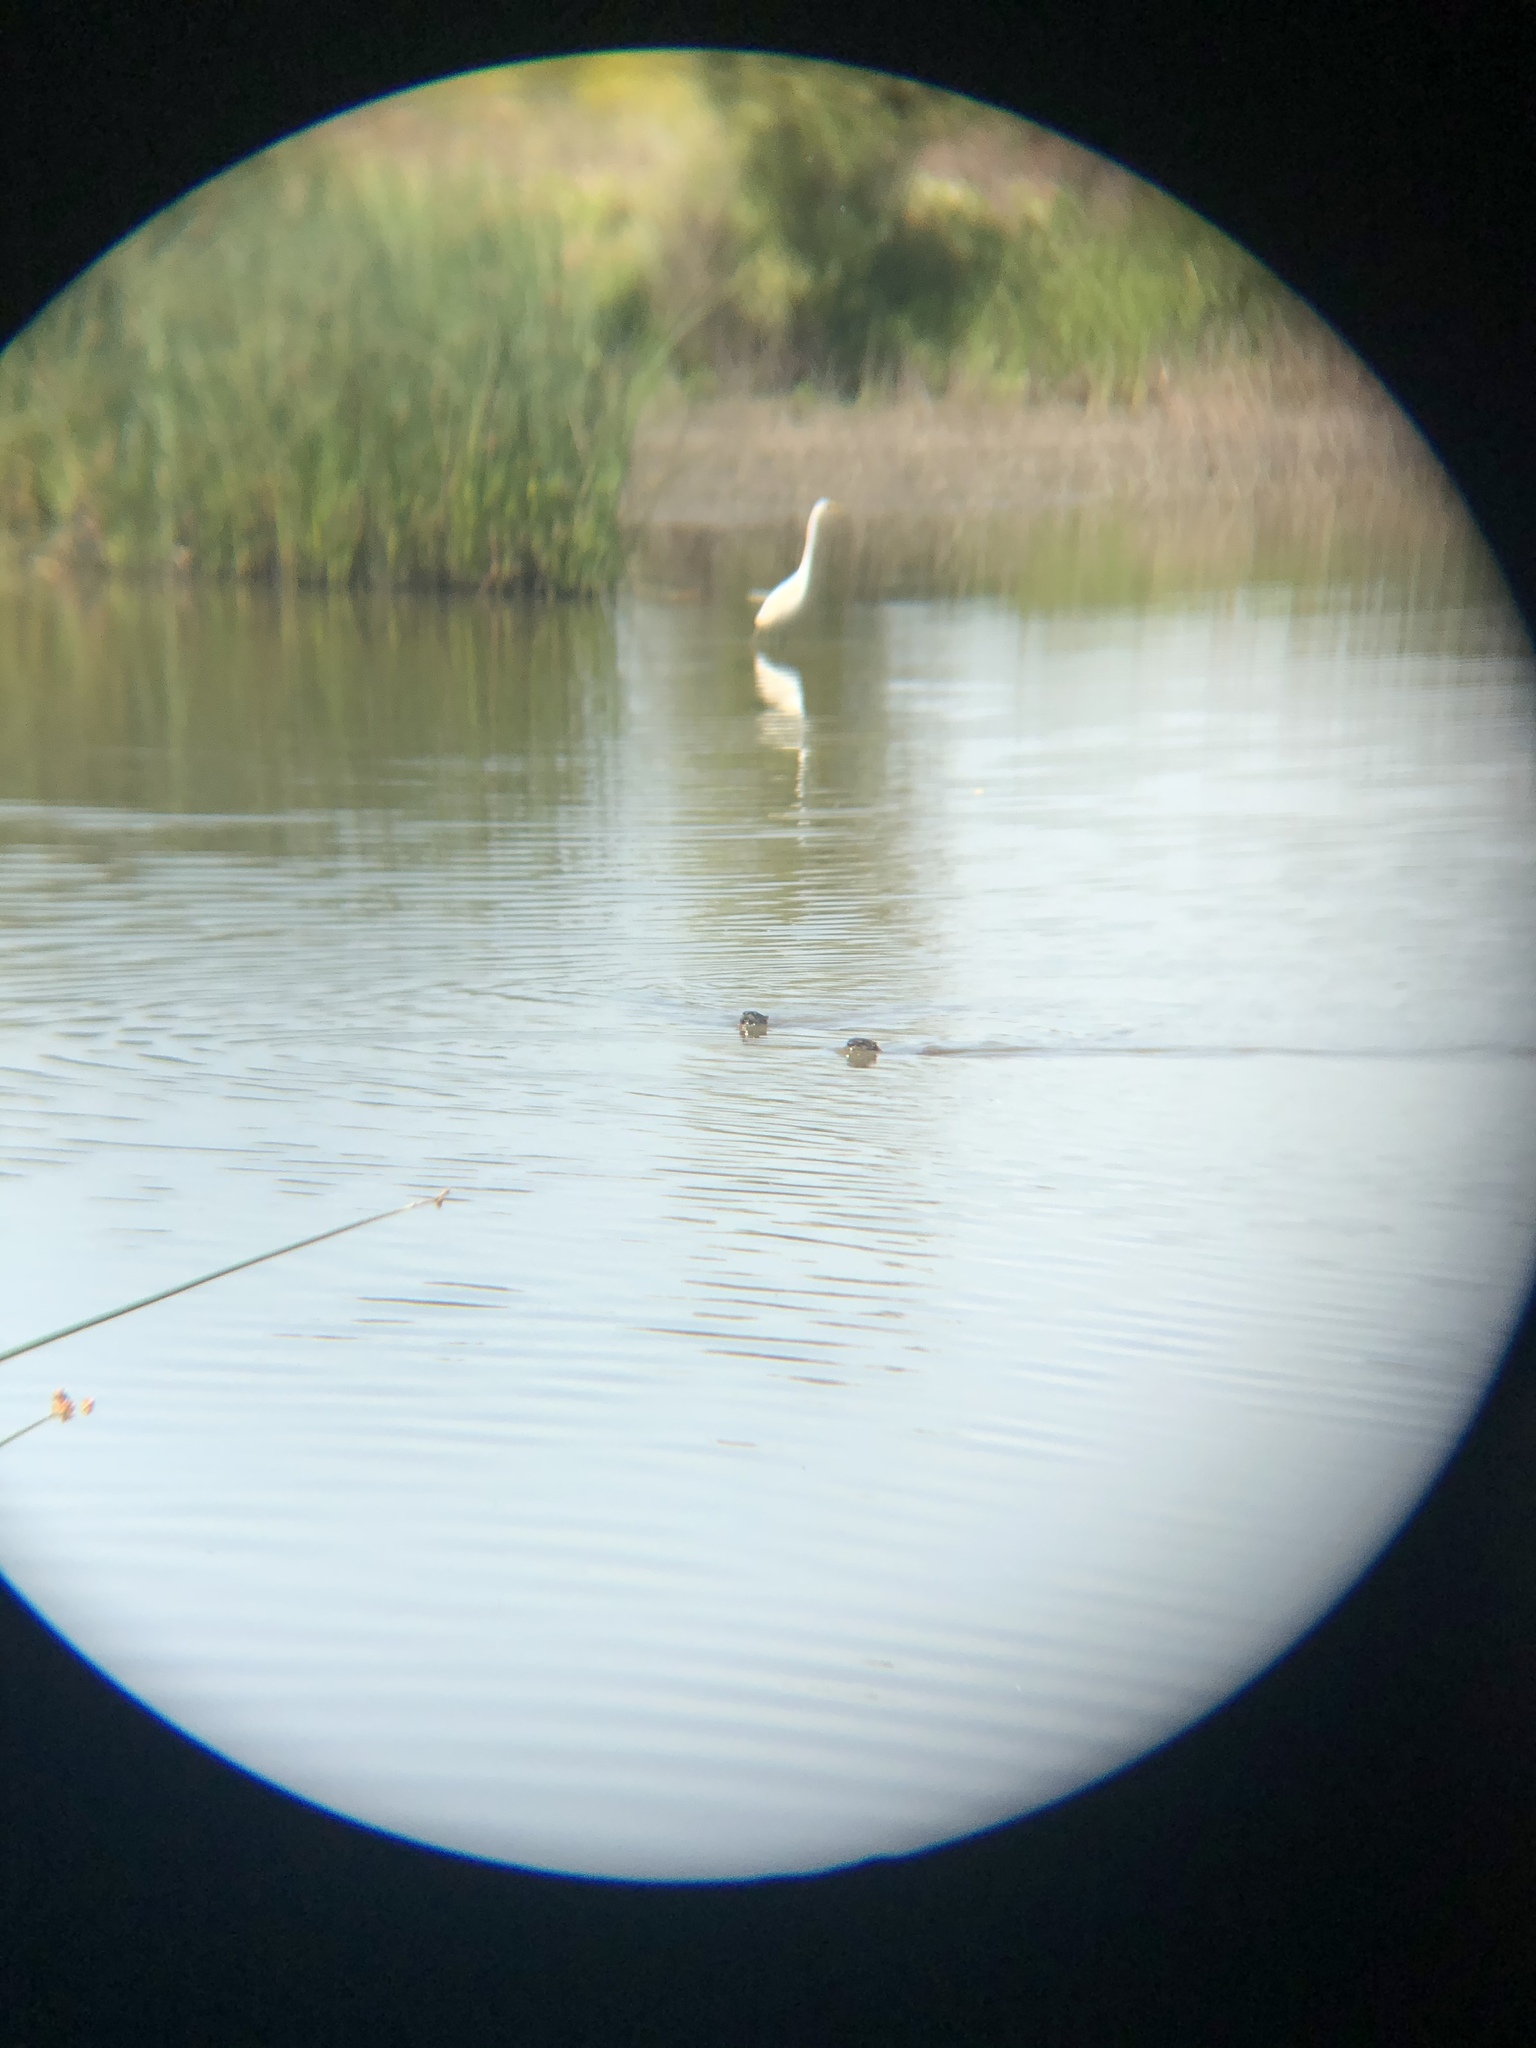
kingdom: Animalia
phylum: Chordata
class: Mammalia
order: Carnivora
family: Mustelidae
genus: Lontra
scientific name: Lontra canadensis
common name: North american river otter
